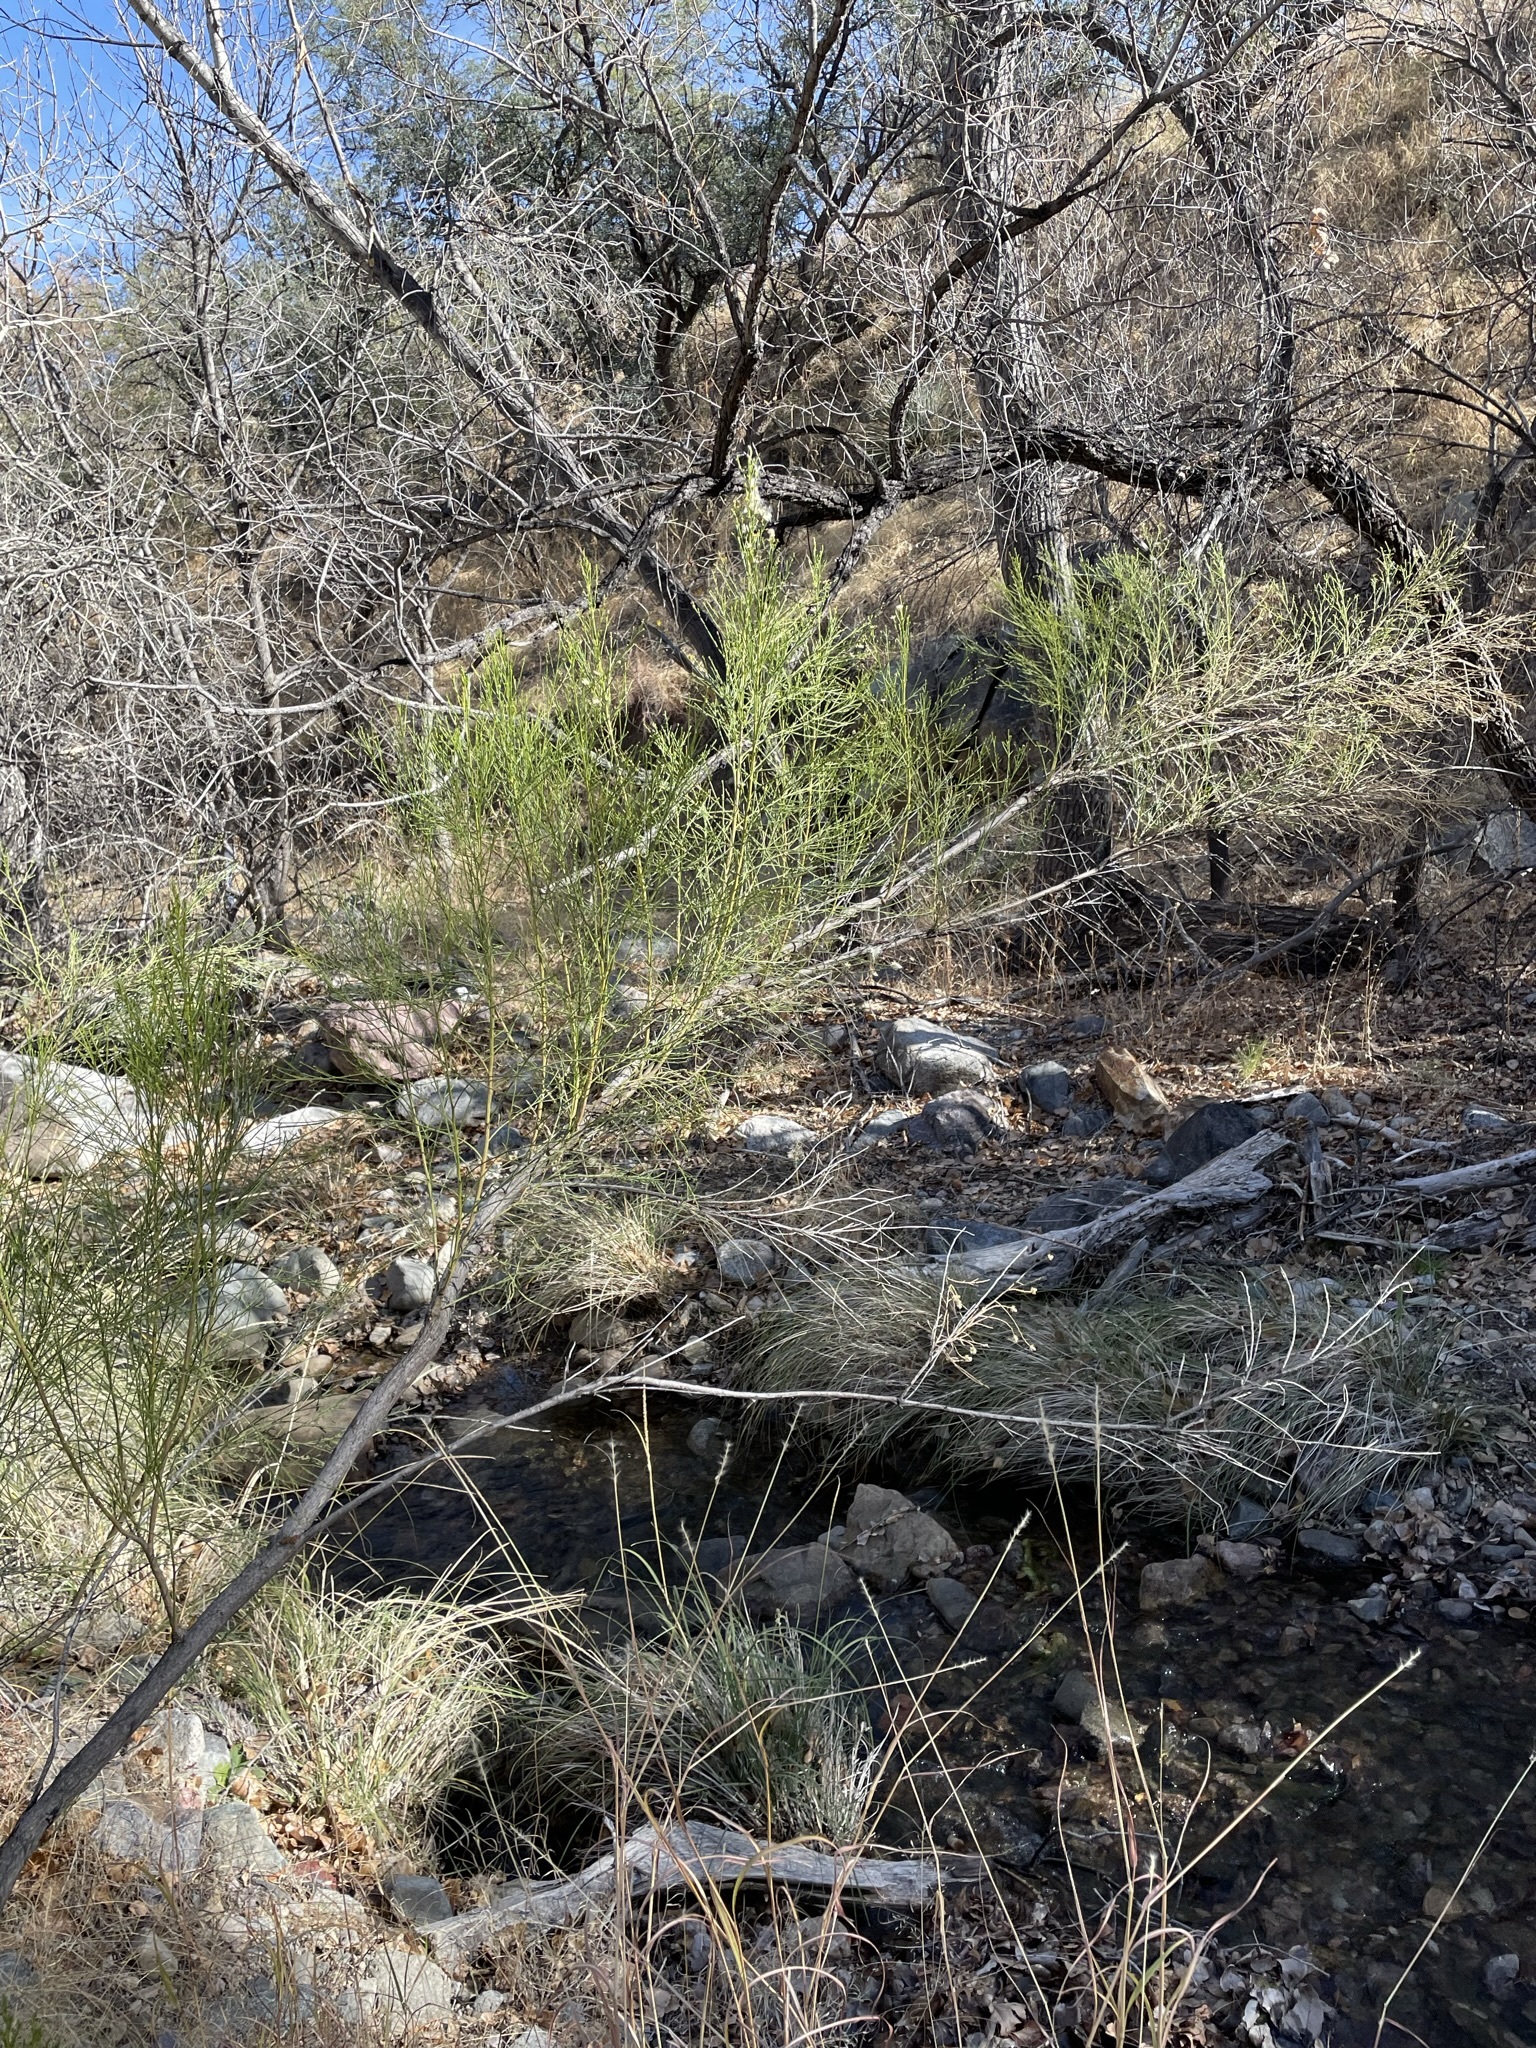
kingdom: Plantae
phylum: Tracheophyta
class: Magnoliopsida
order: Asterales
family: Asteraceae
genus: Baccharis
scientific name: Baccharis sarothroides
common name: Desert-broom
